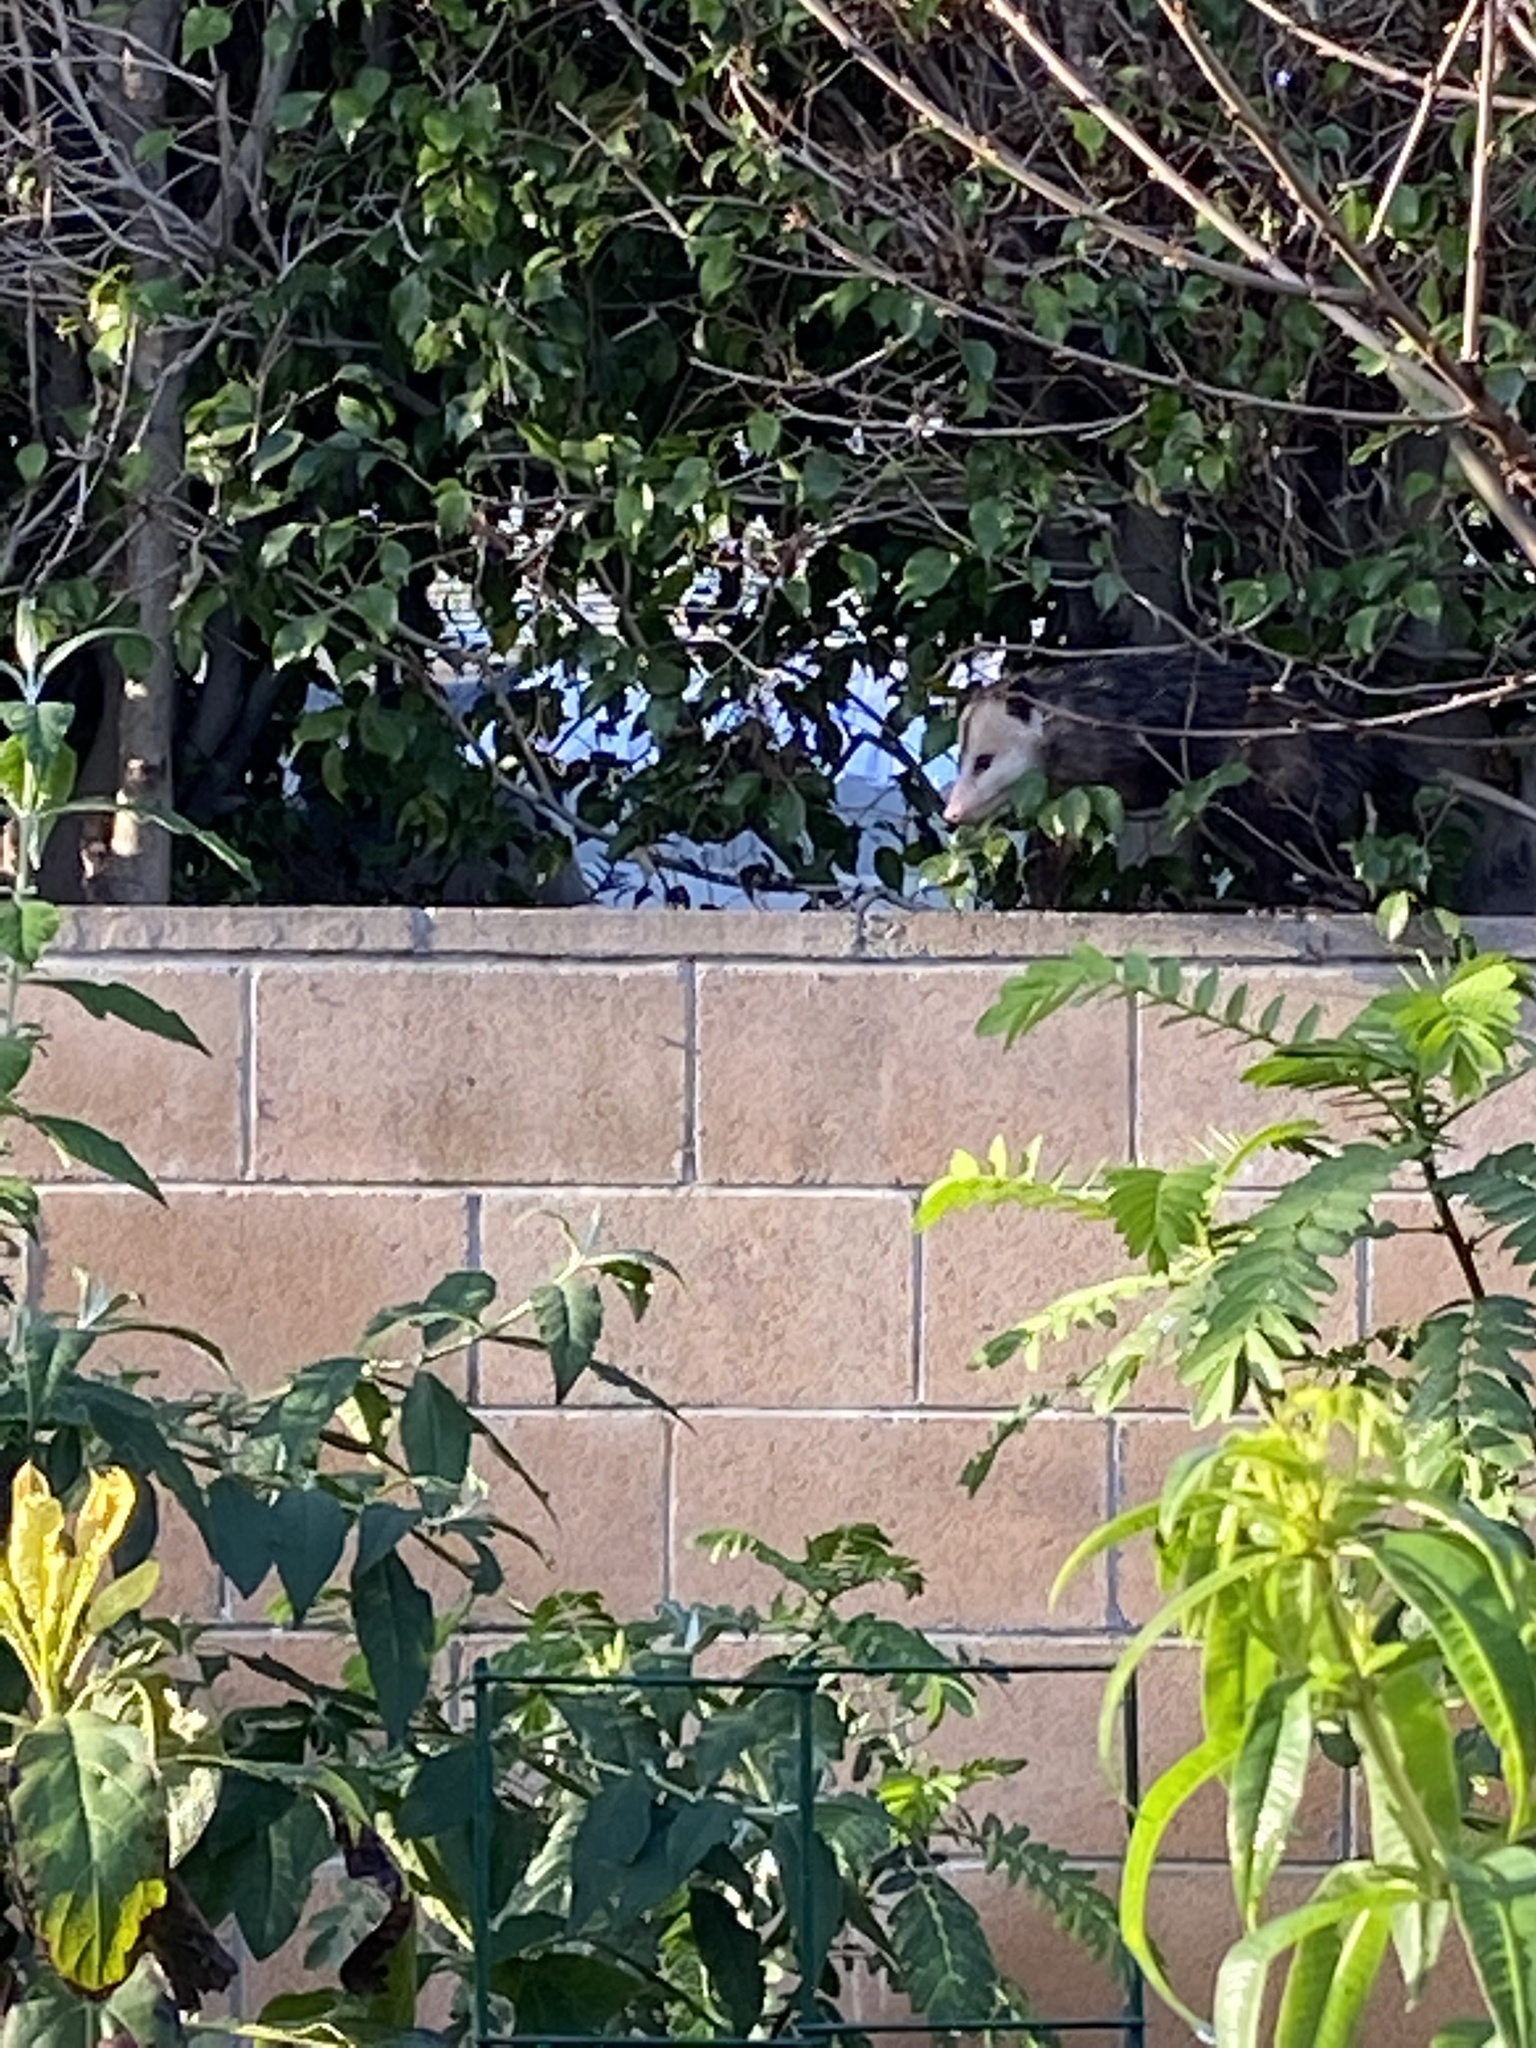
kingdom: Animalia
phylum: Chordata
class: Mammalia
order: Didelphimorphia
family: Didelphidae
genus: Didelphis
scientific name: Didelphis virginiana
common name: Virginia opossum
